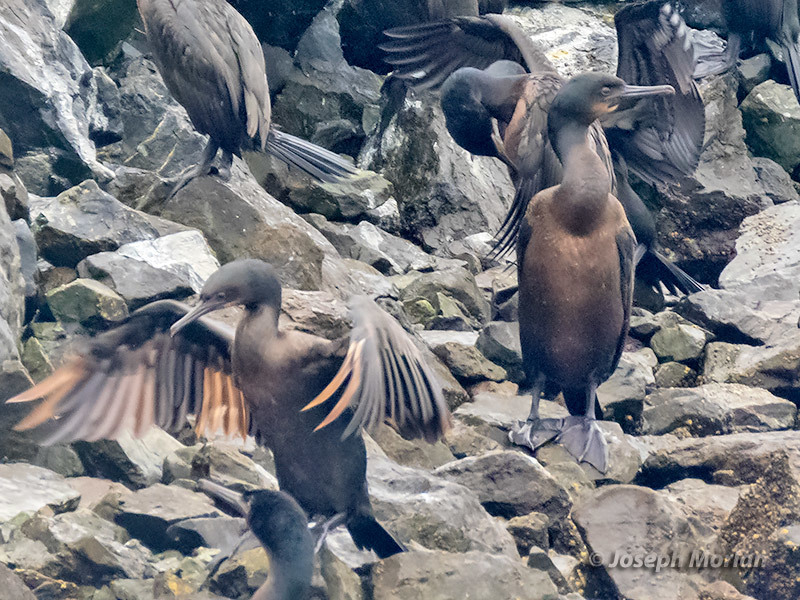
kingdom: Animalia
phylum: Chordata
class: Aves
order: Suliformes
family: Phalacrocoracidae
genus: Urile
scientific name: Urile penicillatus
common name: Brandt's cormorant
